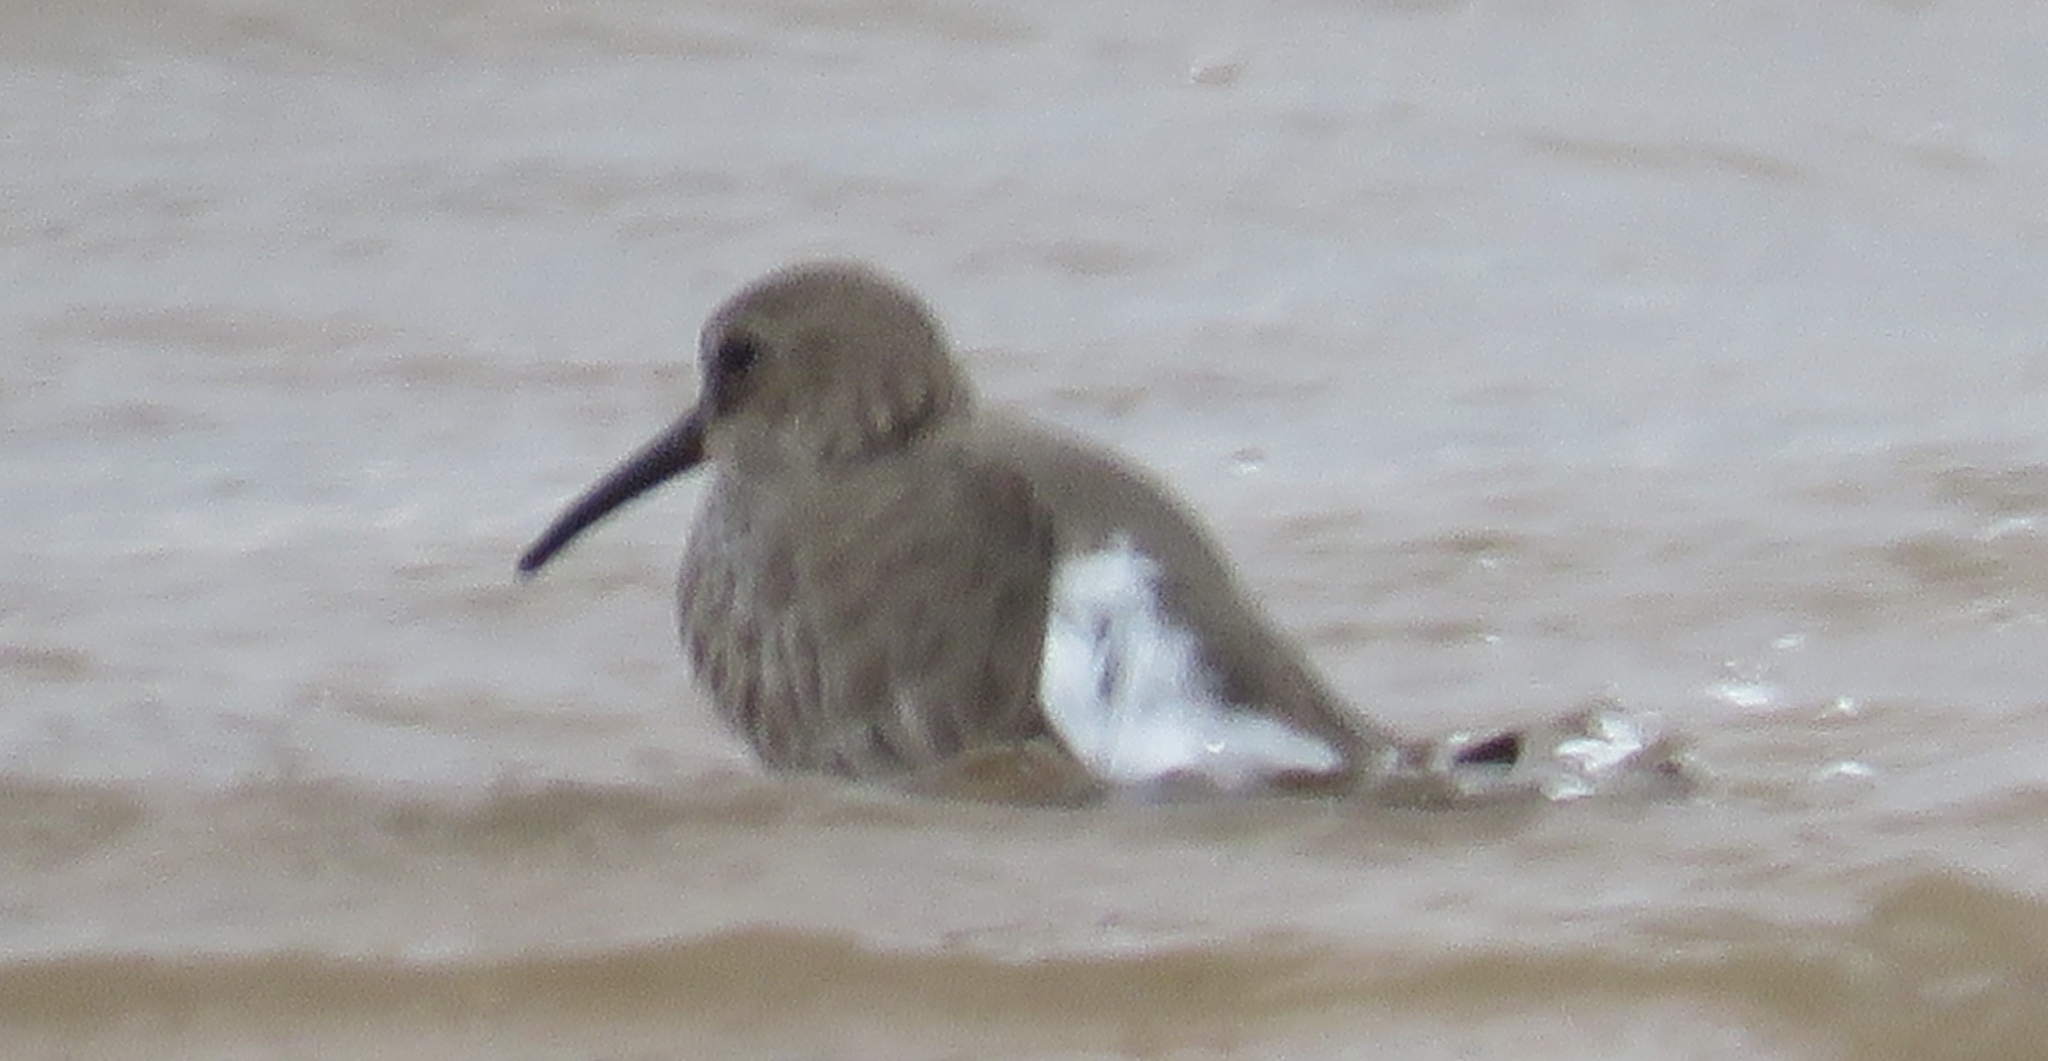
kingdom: Animalia
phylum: Chordata
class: Aves
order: Charadriiformes
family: Scolopacidae
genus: Calidris
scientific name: Calidris alpina
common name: Dunlin
